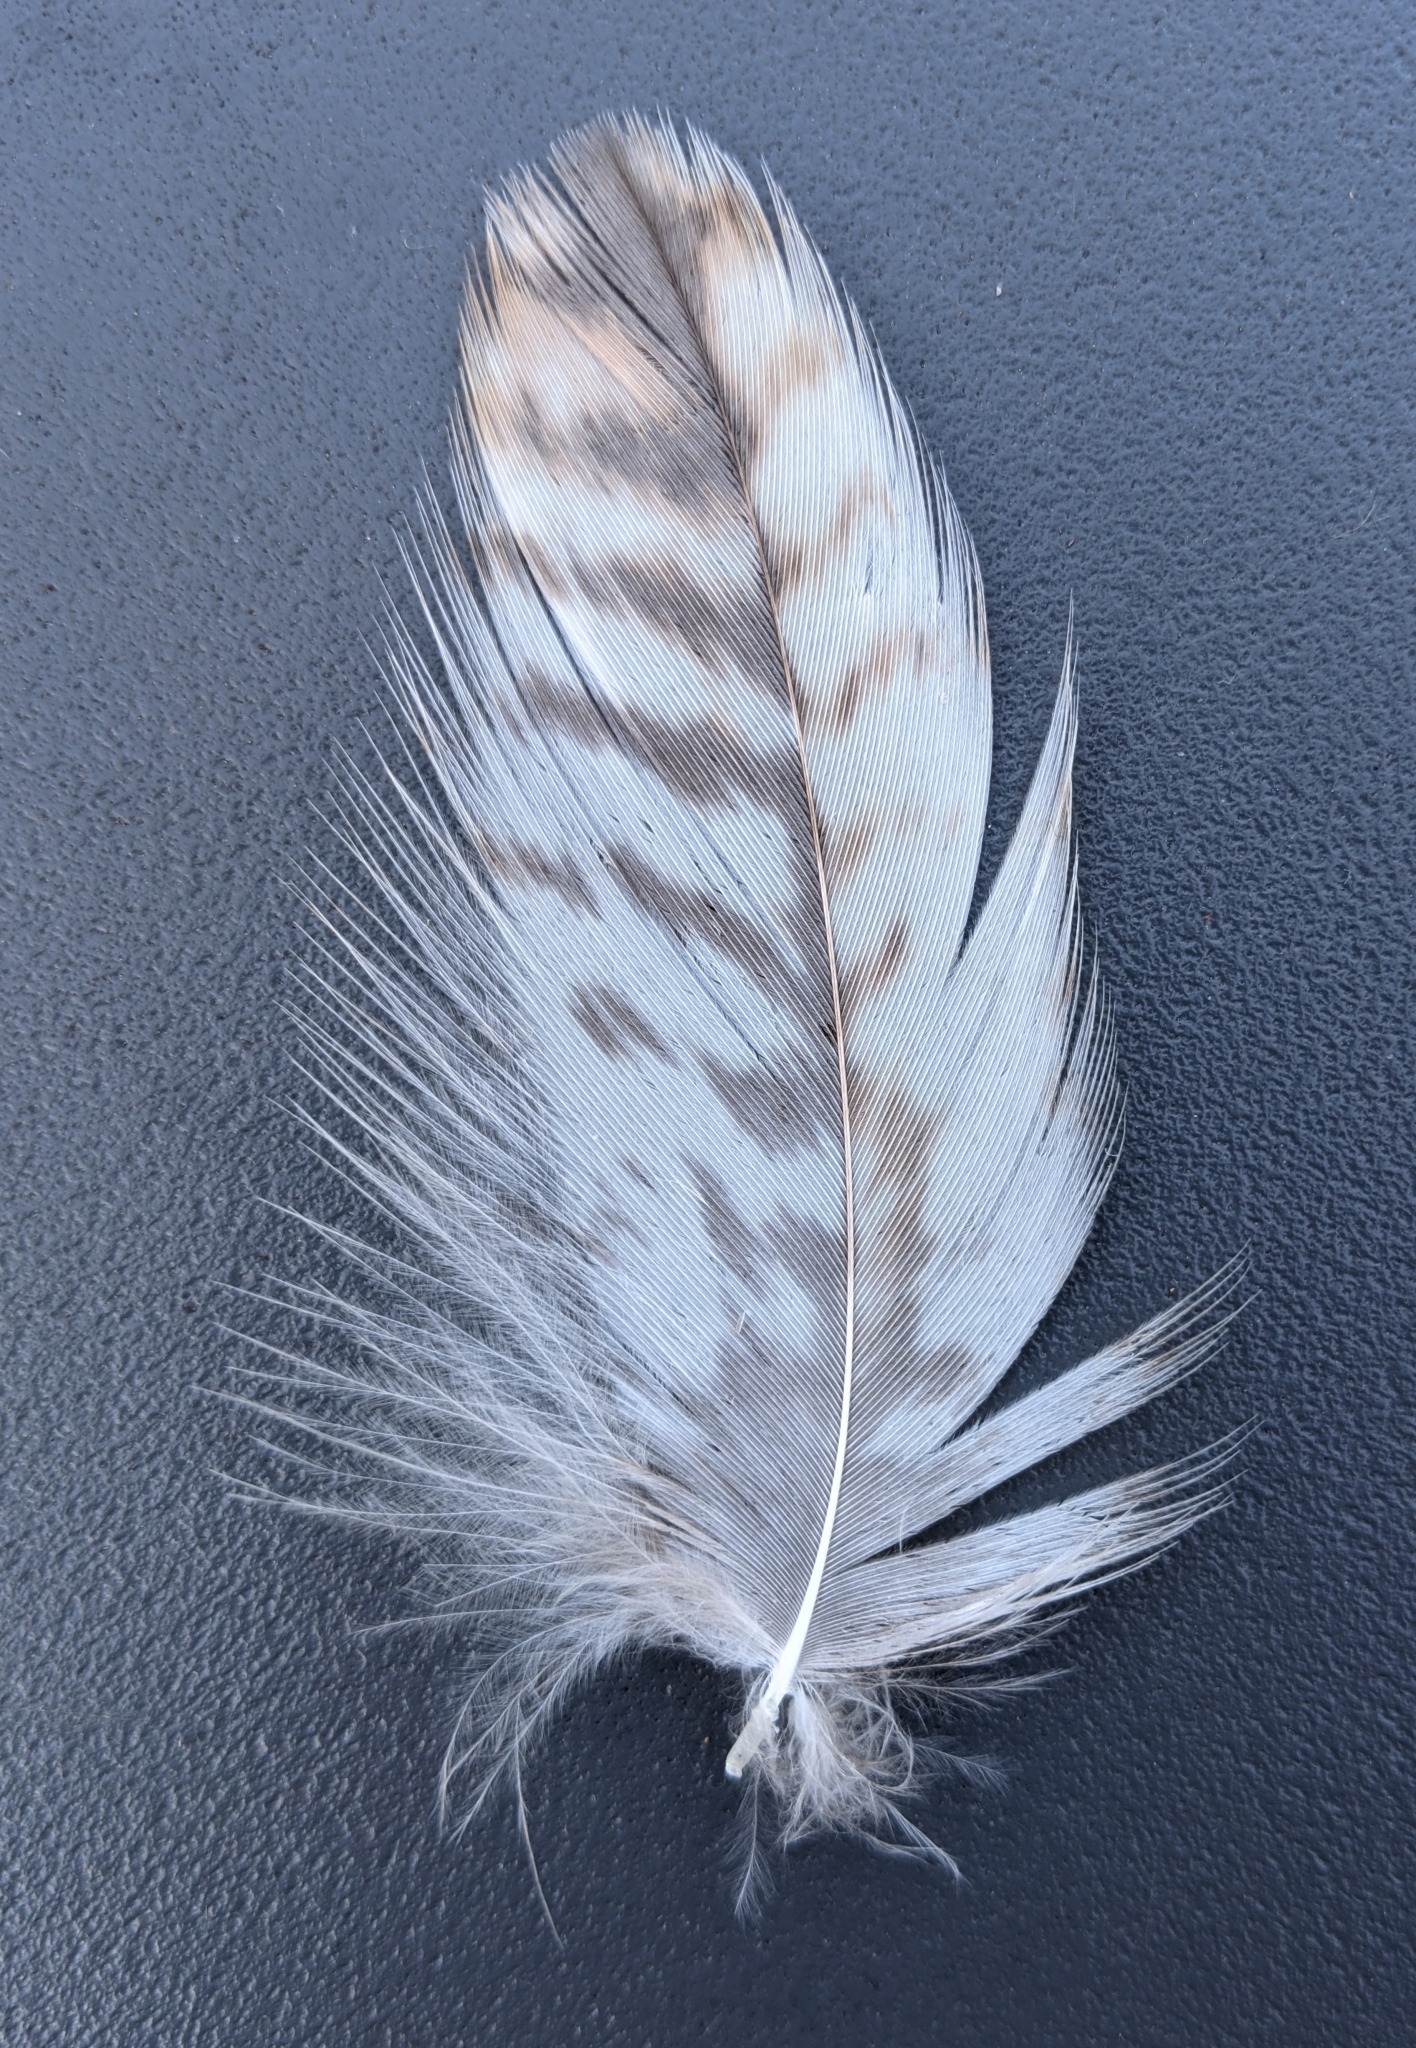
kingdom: Animalia
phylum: Chordata
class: Aves
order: Accipitriformes
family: Accipitridae
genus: Buteo
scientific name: Buteo jamaicensis
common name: Red-tailed hawk
